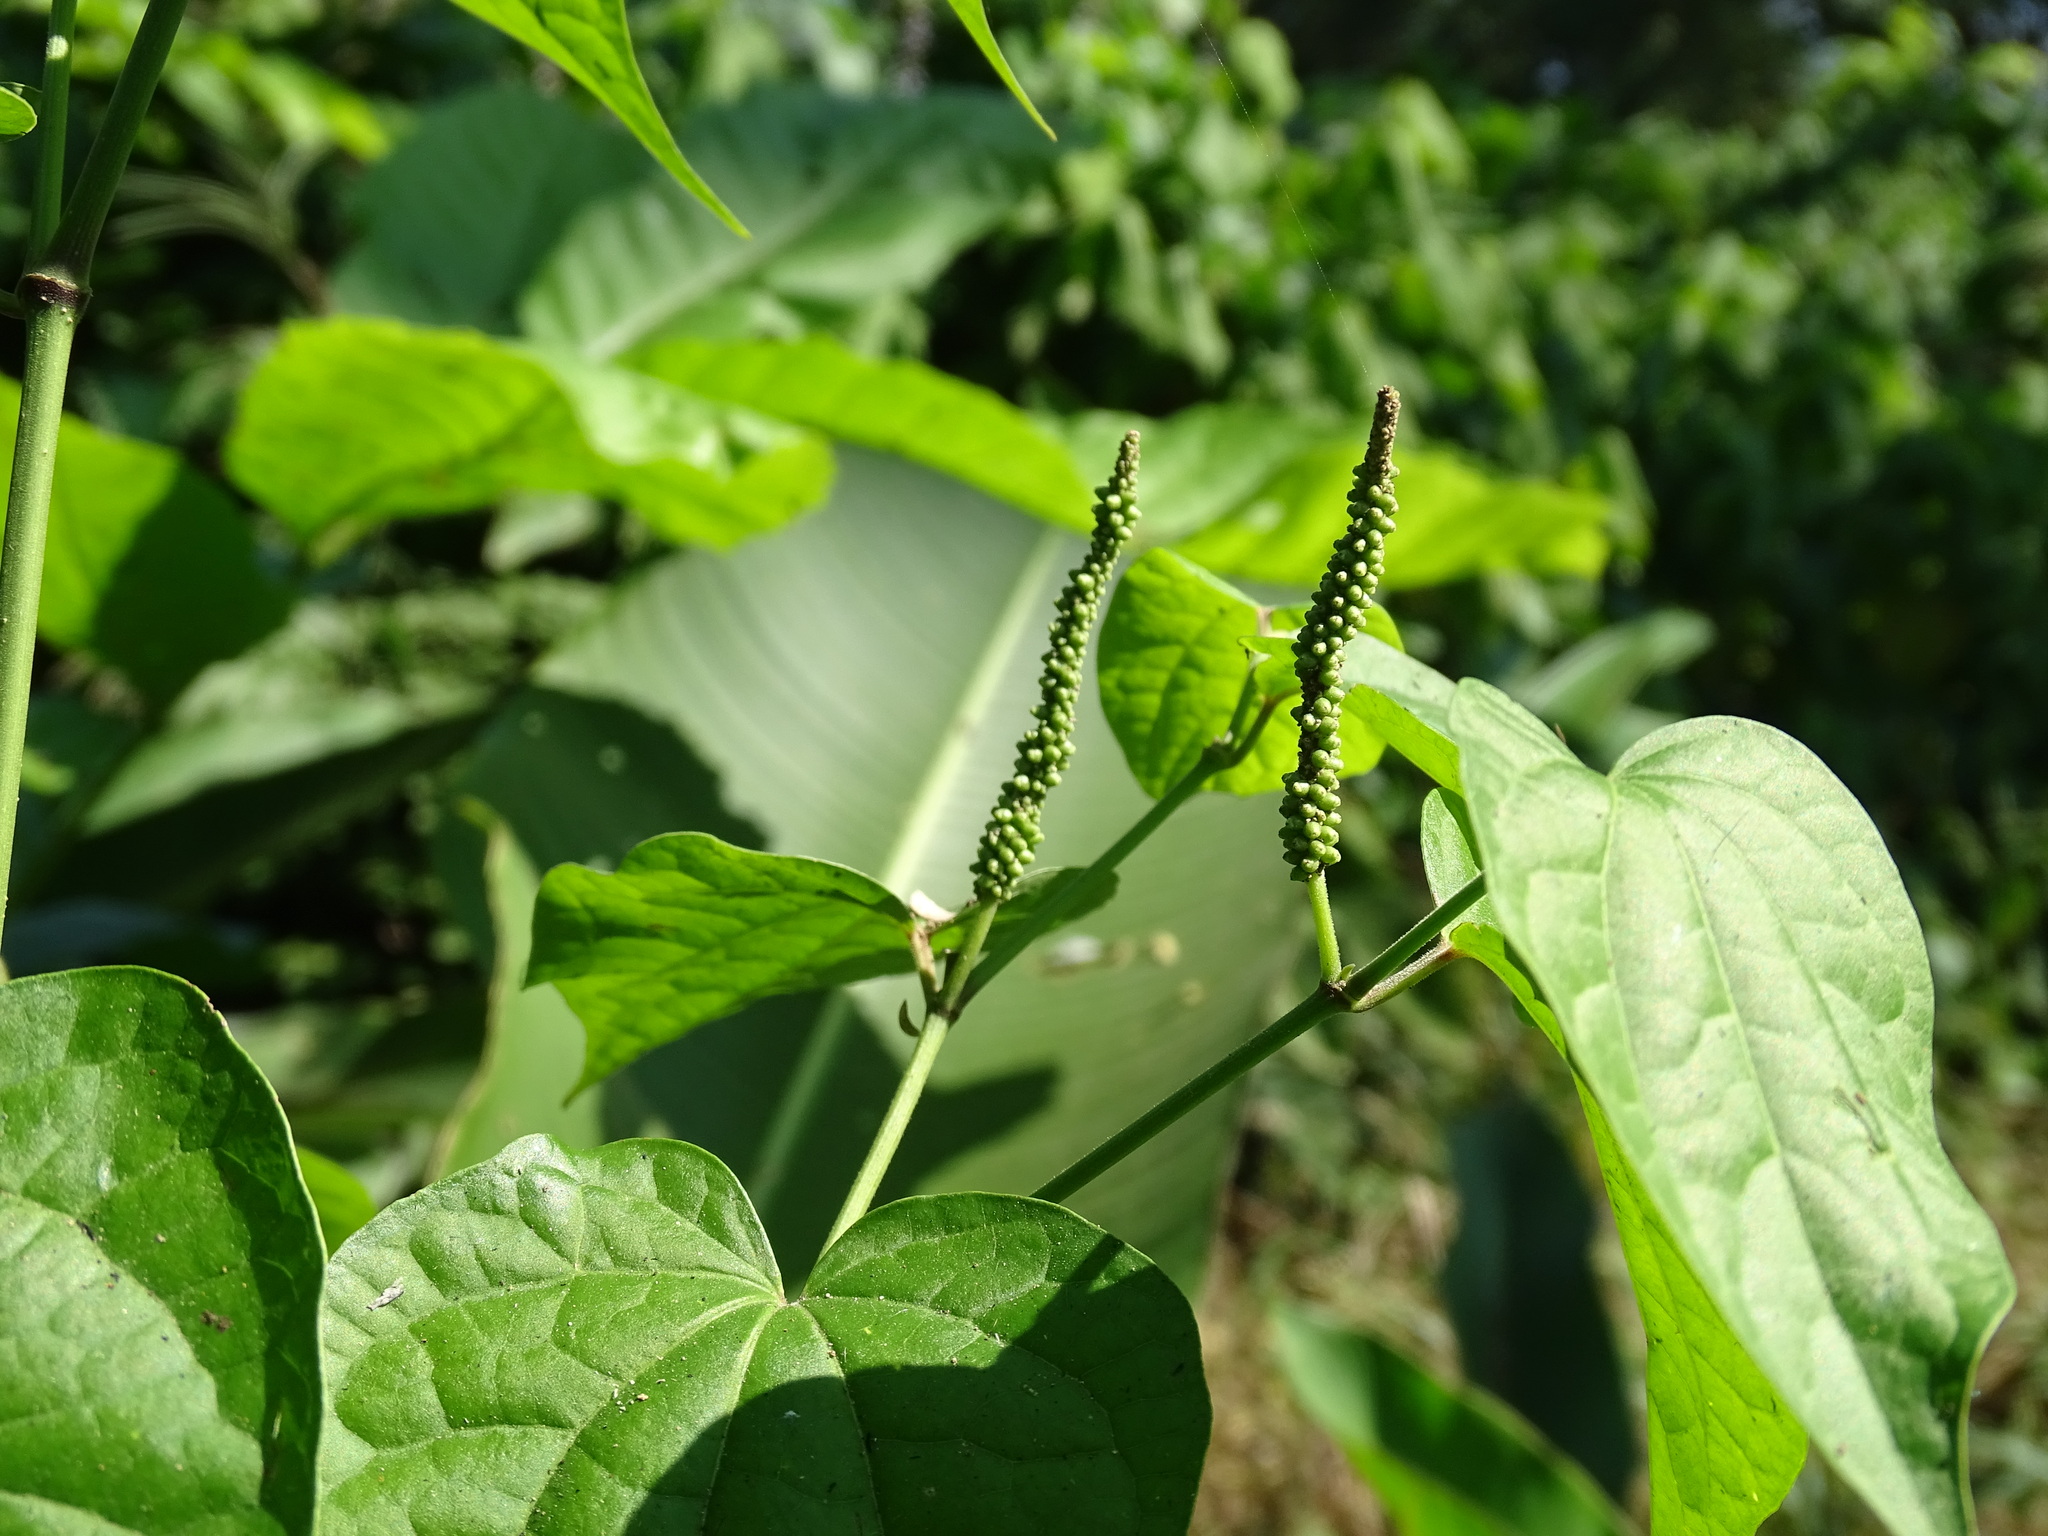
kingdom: Plantae
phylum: Tracheophyta
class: Magnoliopsida
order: Piperales
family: Piperaceae
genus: Piper
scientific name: Piper amalago
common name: Pepper-elder
